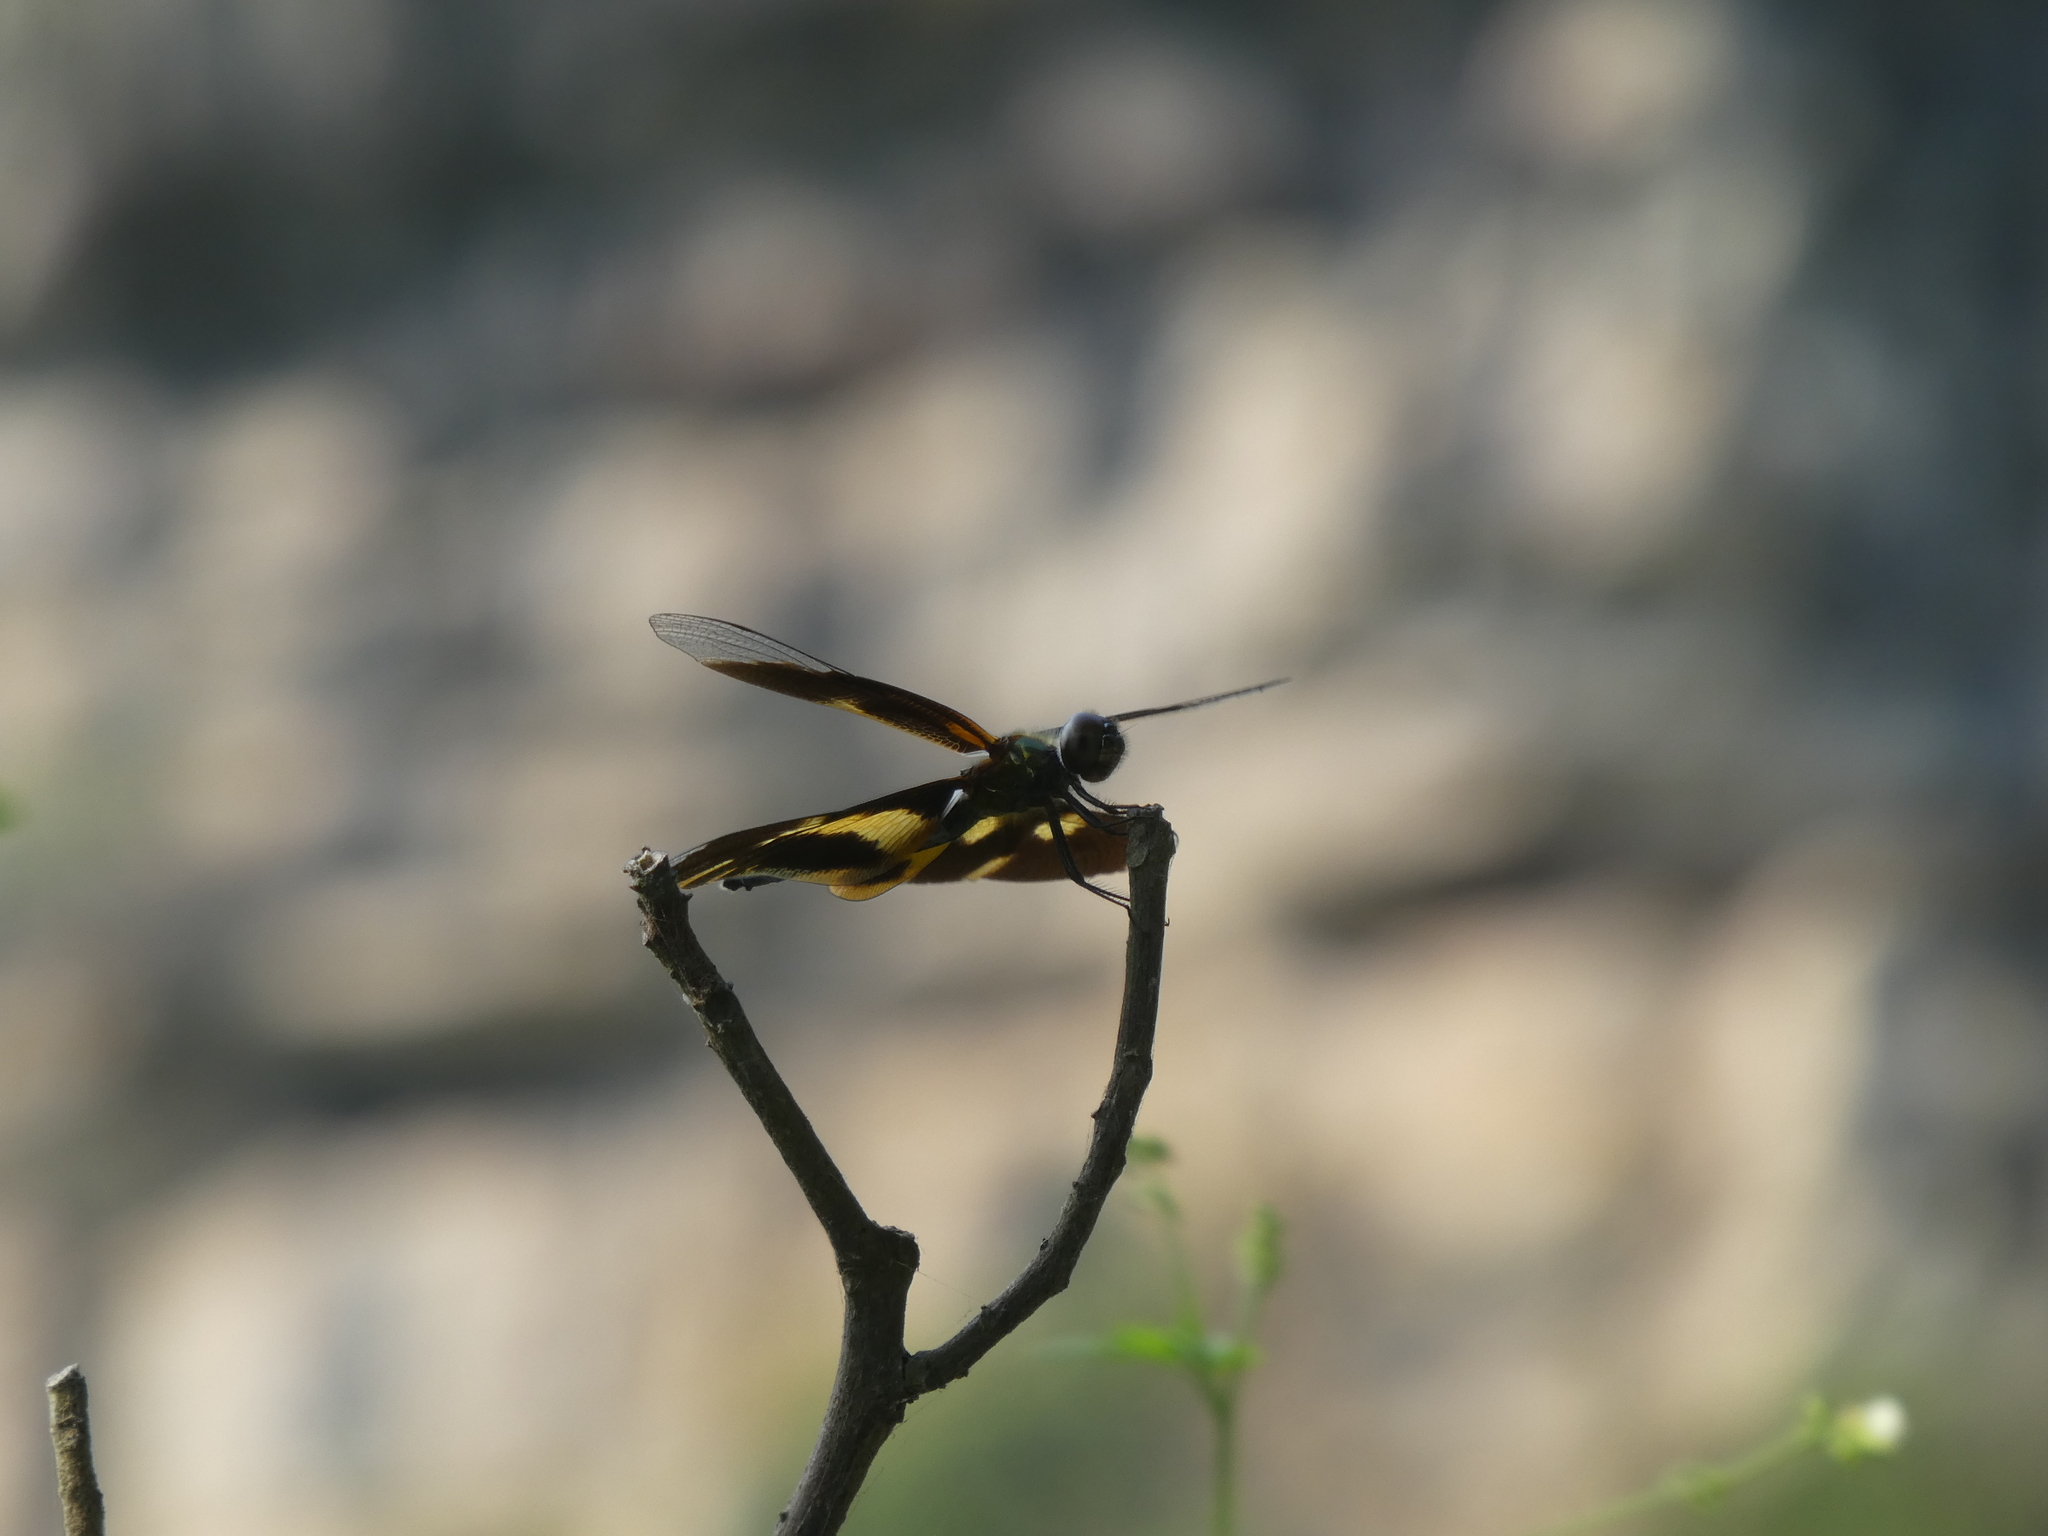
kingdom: Animalia
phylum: Arthropoda
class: Insecta
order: Odonata
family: Libellulidae
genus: Rhyothemis
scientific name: Rhyothemis variegata
